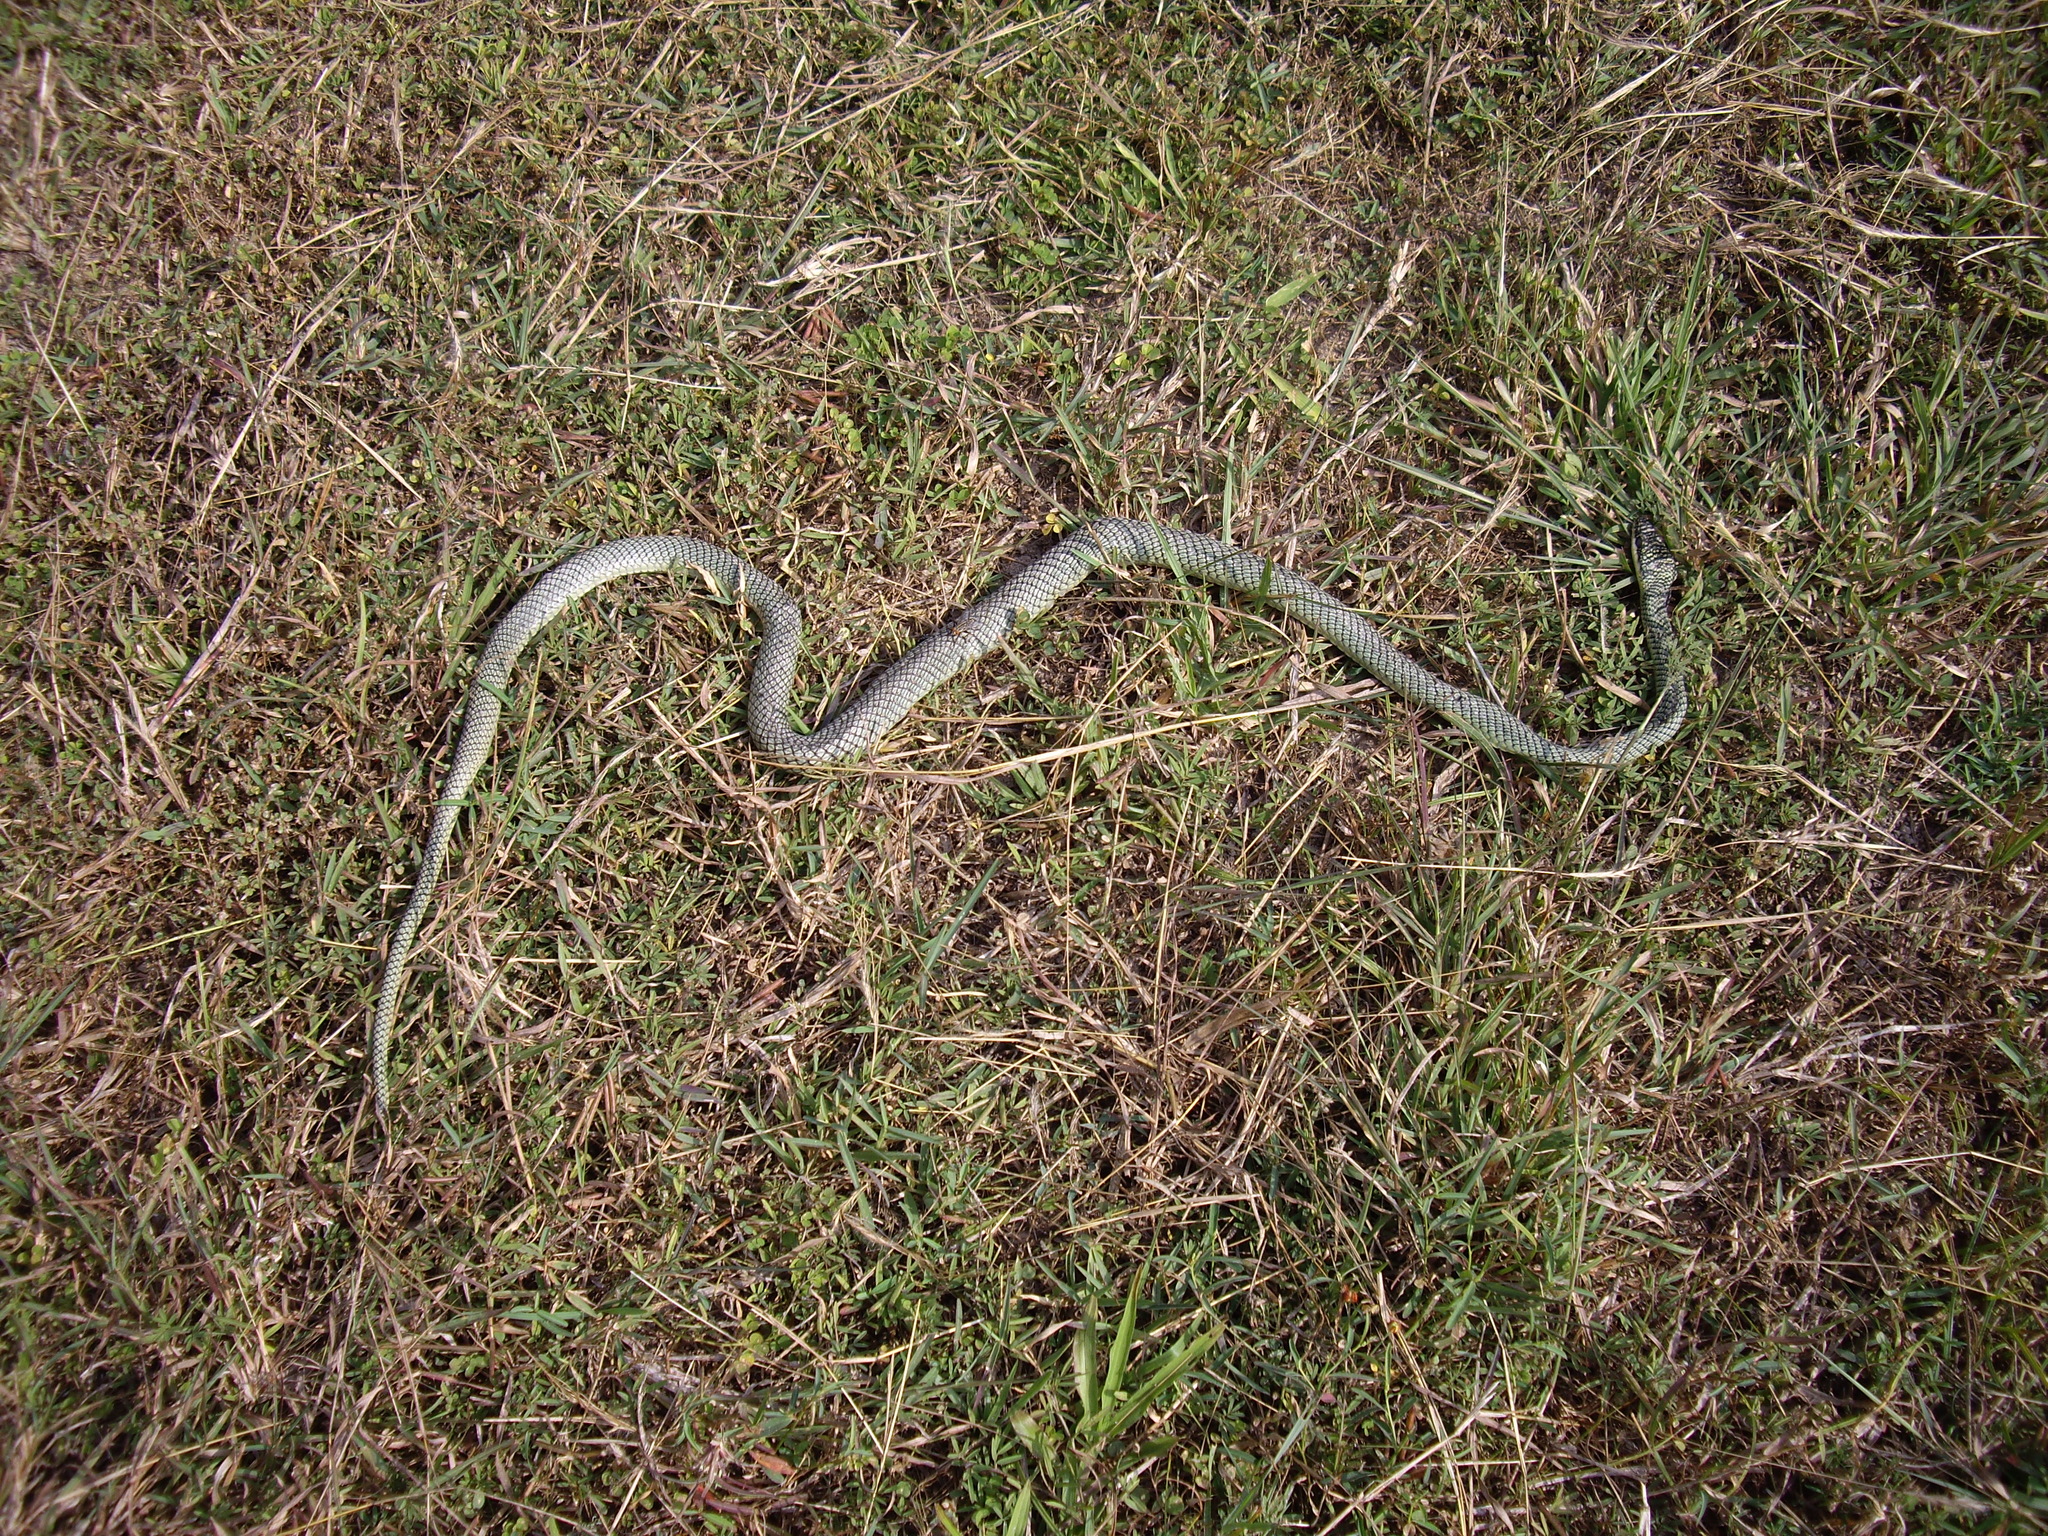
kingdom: Animalia
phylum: Chordata
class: Squamata
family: Colubridae
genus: Chrysopelea
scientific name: Chrysopelea ornata
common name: Golden flying snake
